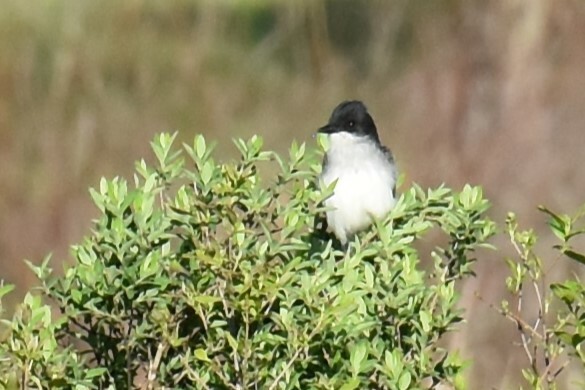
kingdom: Animalia
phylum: Chordata
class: Aves
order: Passeriformes
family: Tyrannidae
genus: Tyrannus
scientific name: Tyrannus tyrannus
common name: Eastern kingbird
